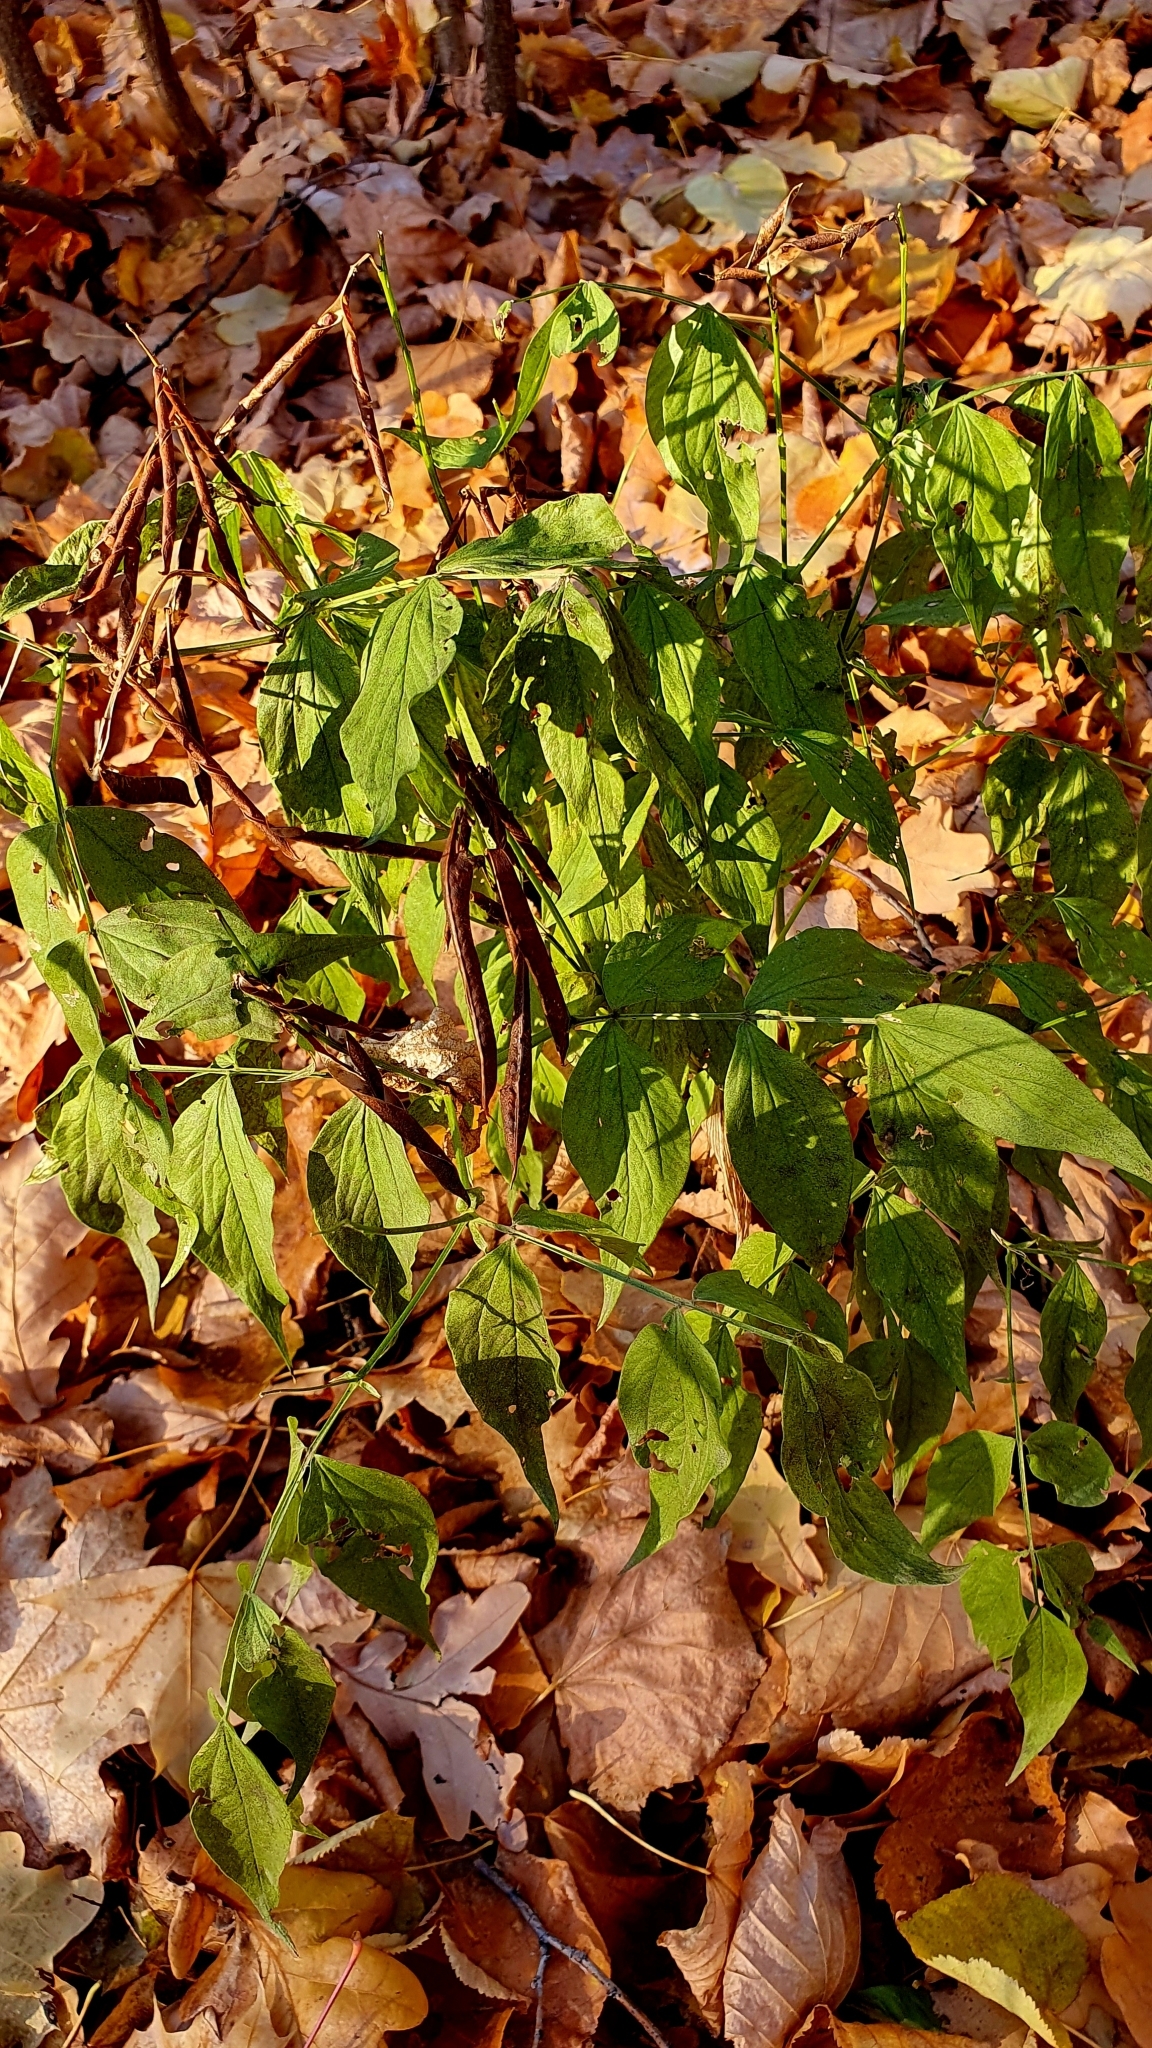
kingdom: Plantae
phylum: Tracheophyta
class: Magnoliopsida
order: Fabales
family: Fabaceae
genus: Lathyrus
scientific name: Lathyrus vernus
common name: Spring pea
